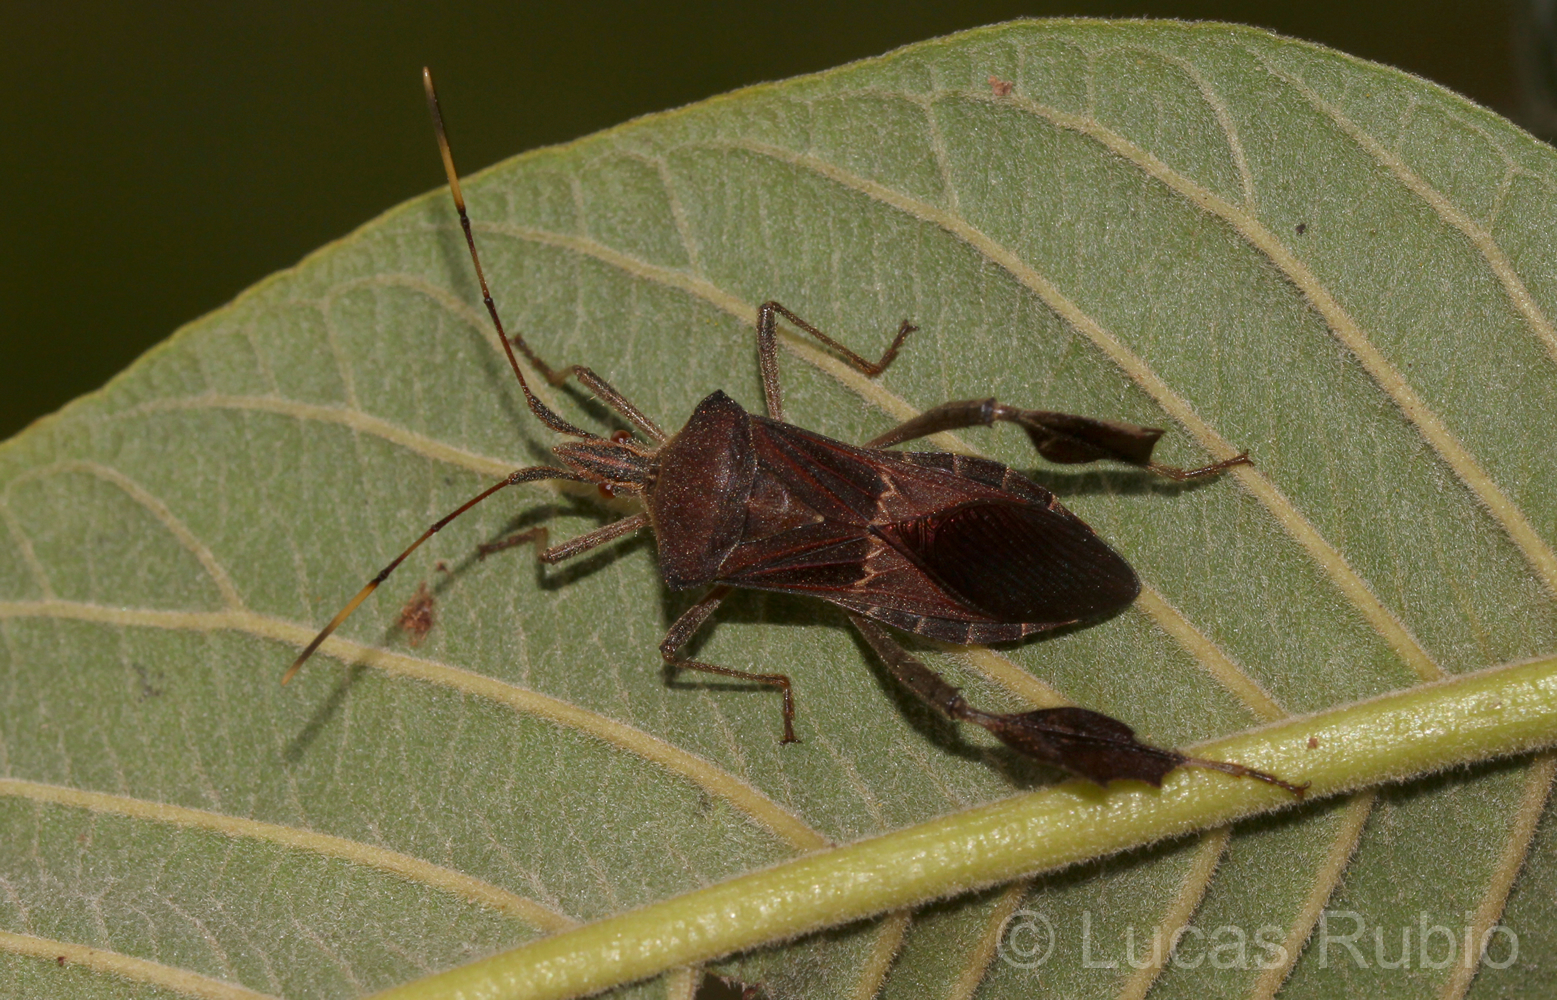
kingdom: Animalia
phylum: Arthropoda
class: Insecta
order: Hemiptera
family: Coreidae
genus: Leptoglossus
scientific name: Leptoglossus stigma
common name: O'neal's leaf-footed bug
